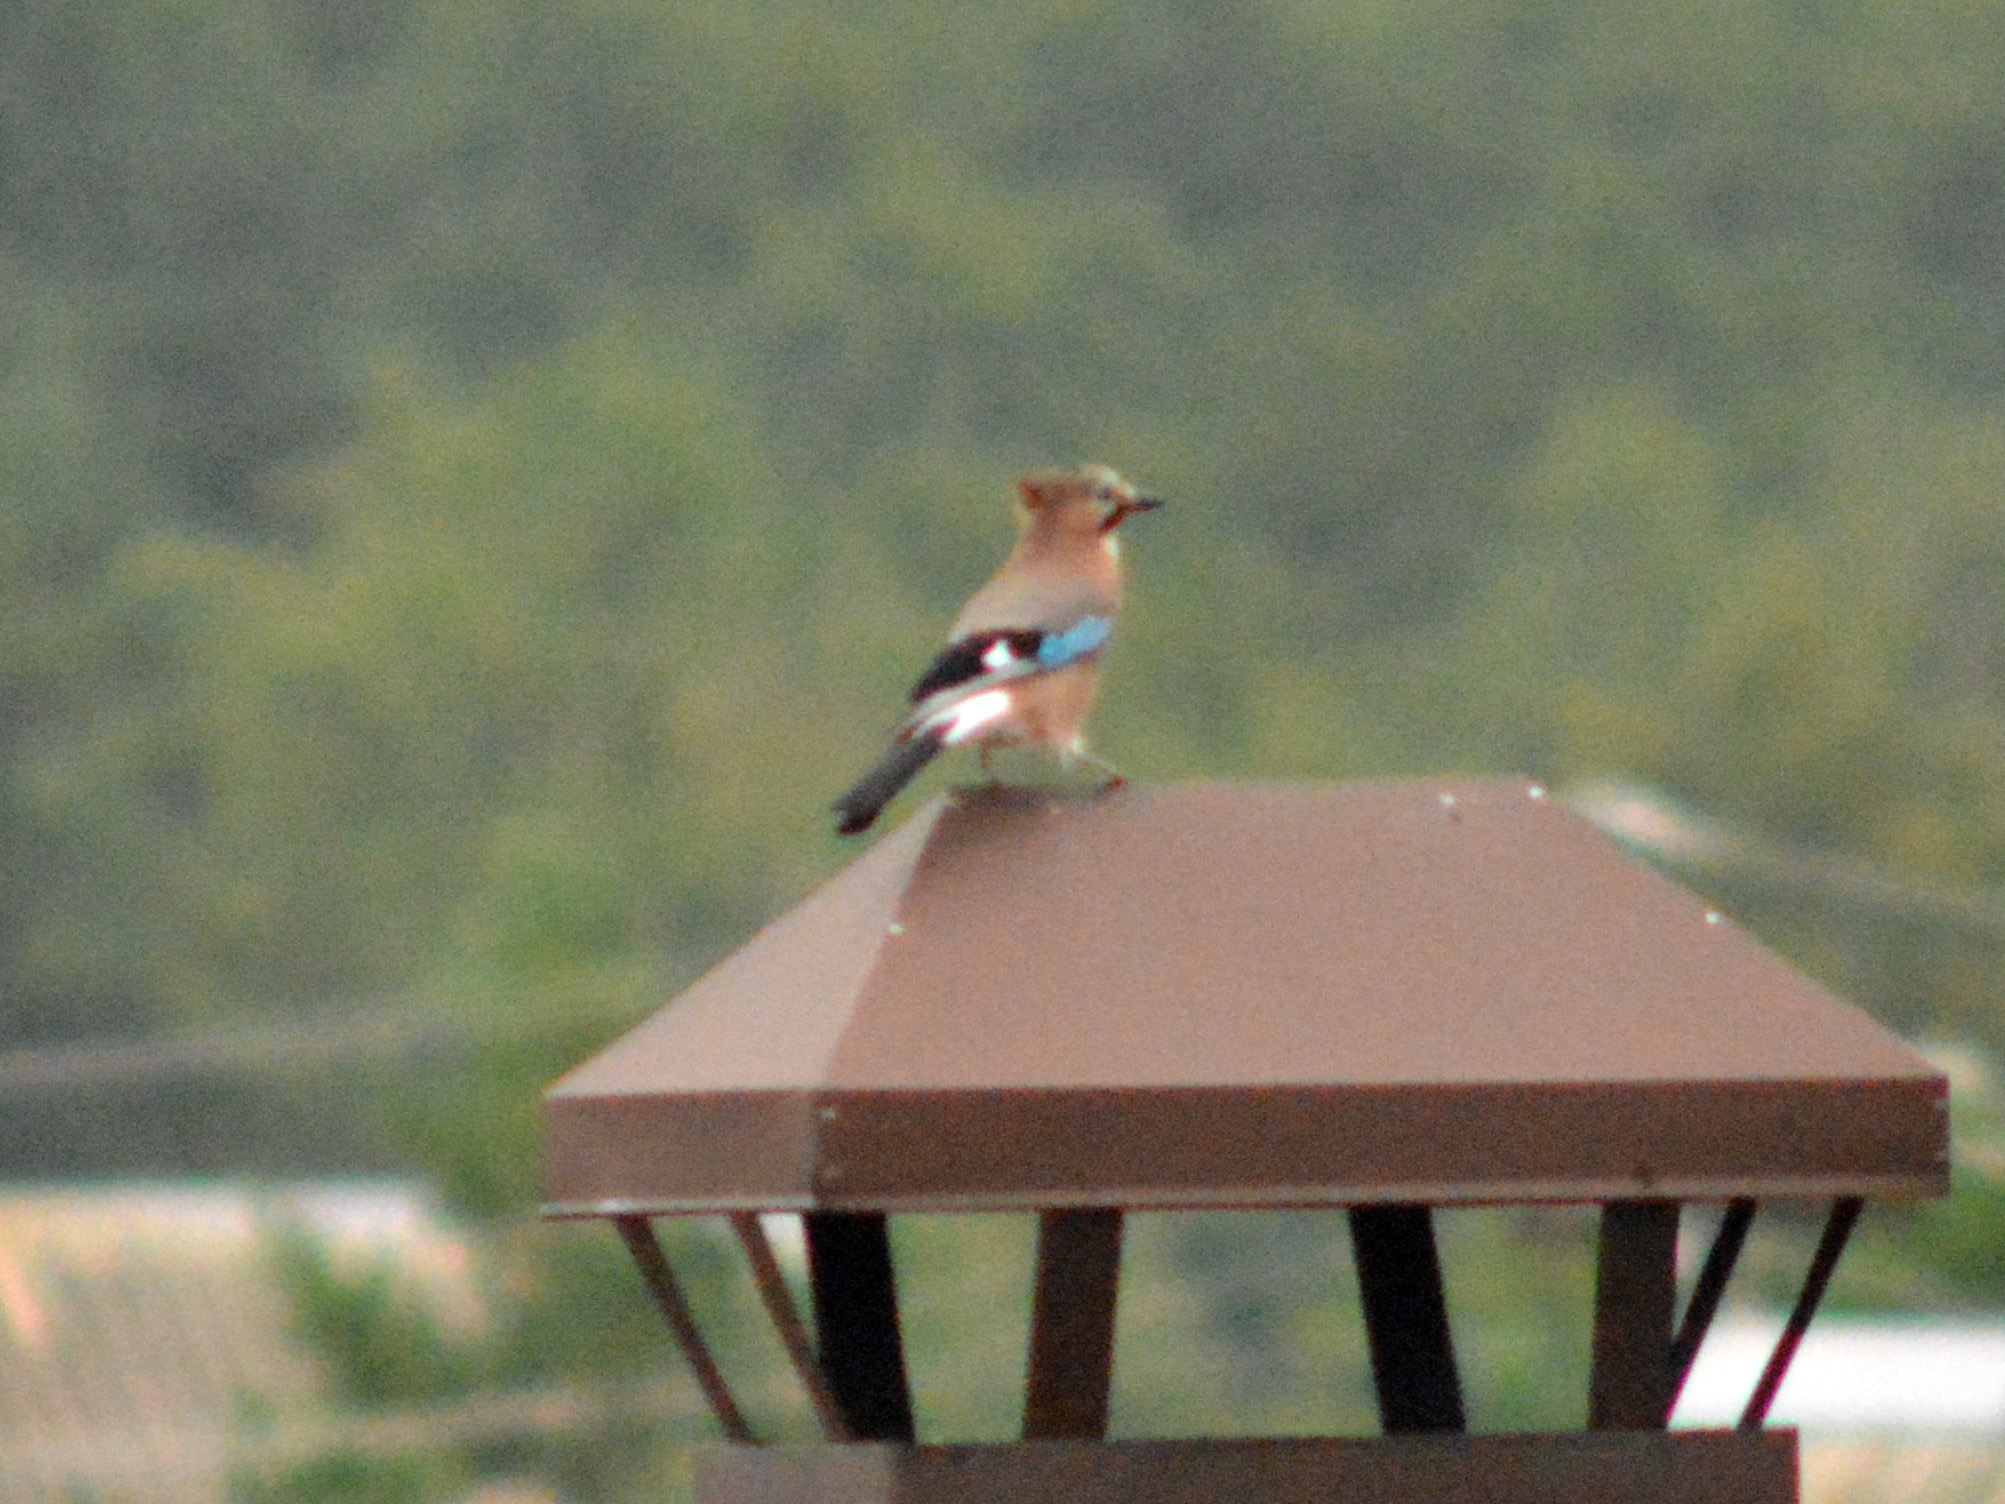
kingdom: Animalia
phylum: Chordata
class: Aves
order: Passeriformes
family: Corvidae
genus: Garrulus
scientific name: Garrulus glandarius
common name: Eurasian jay
